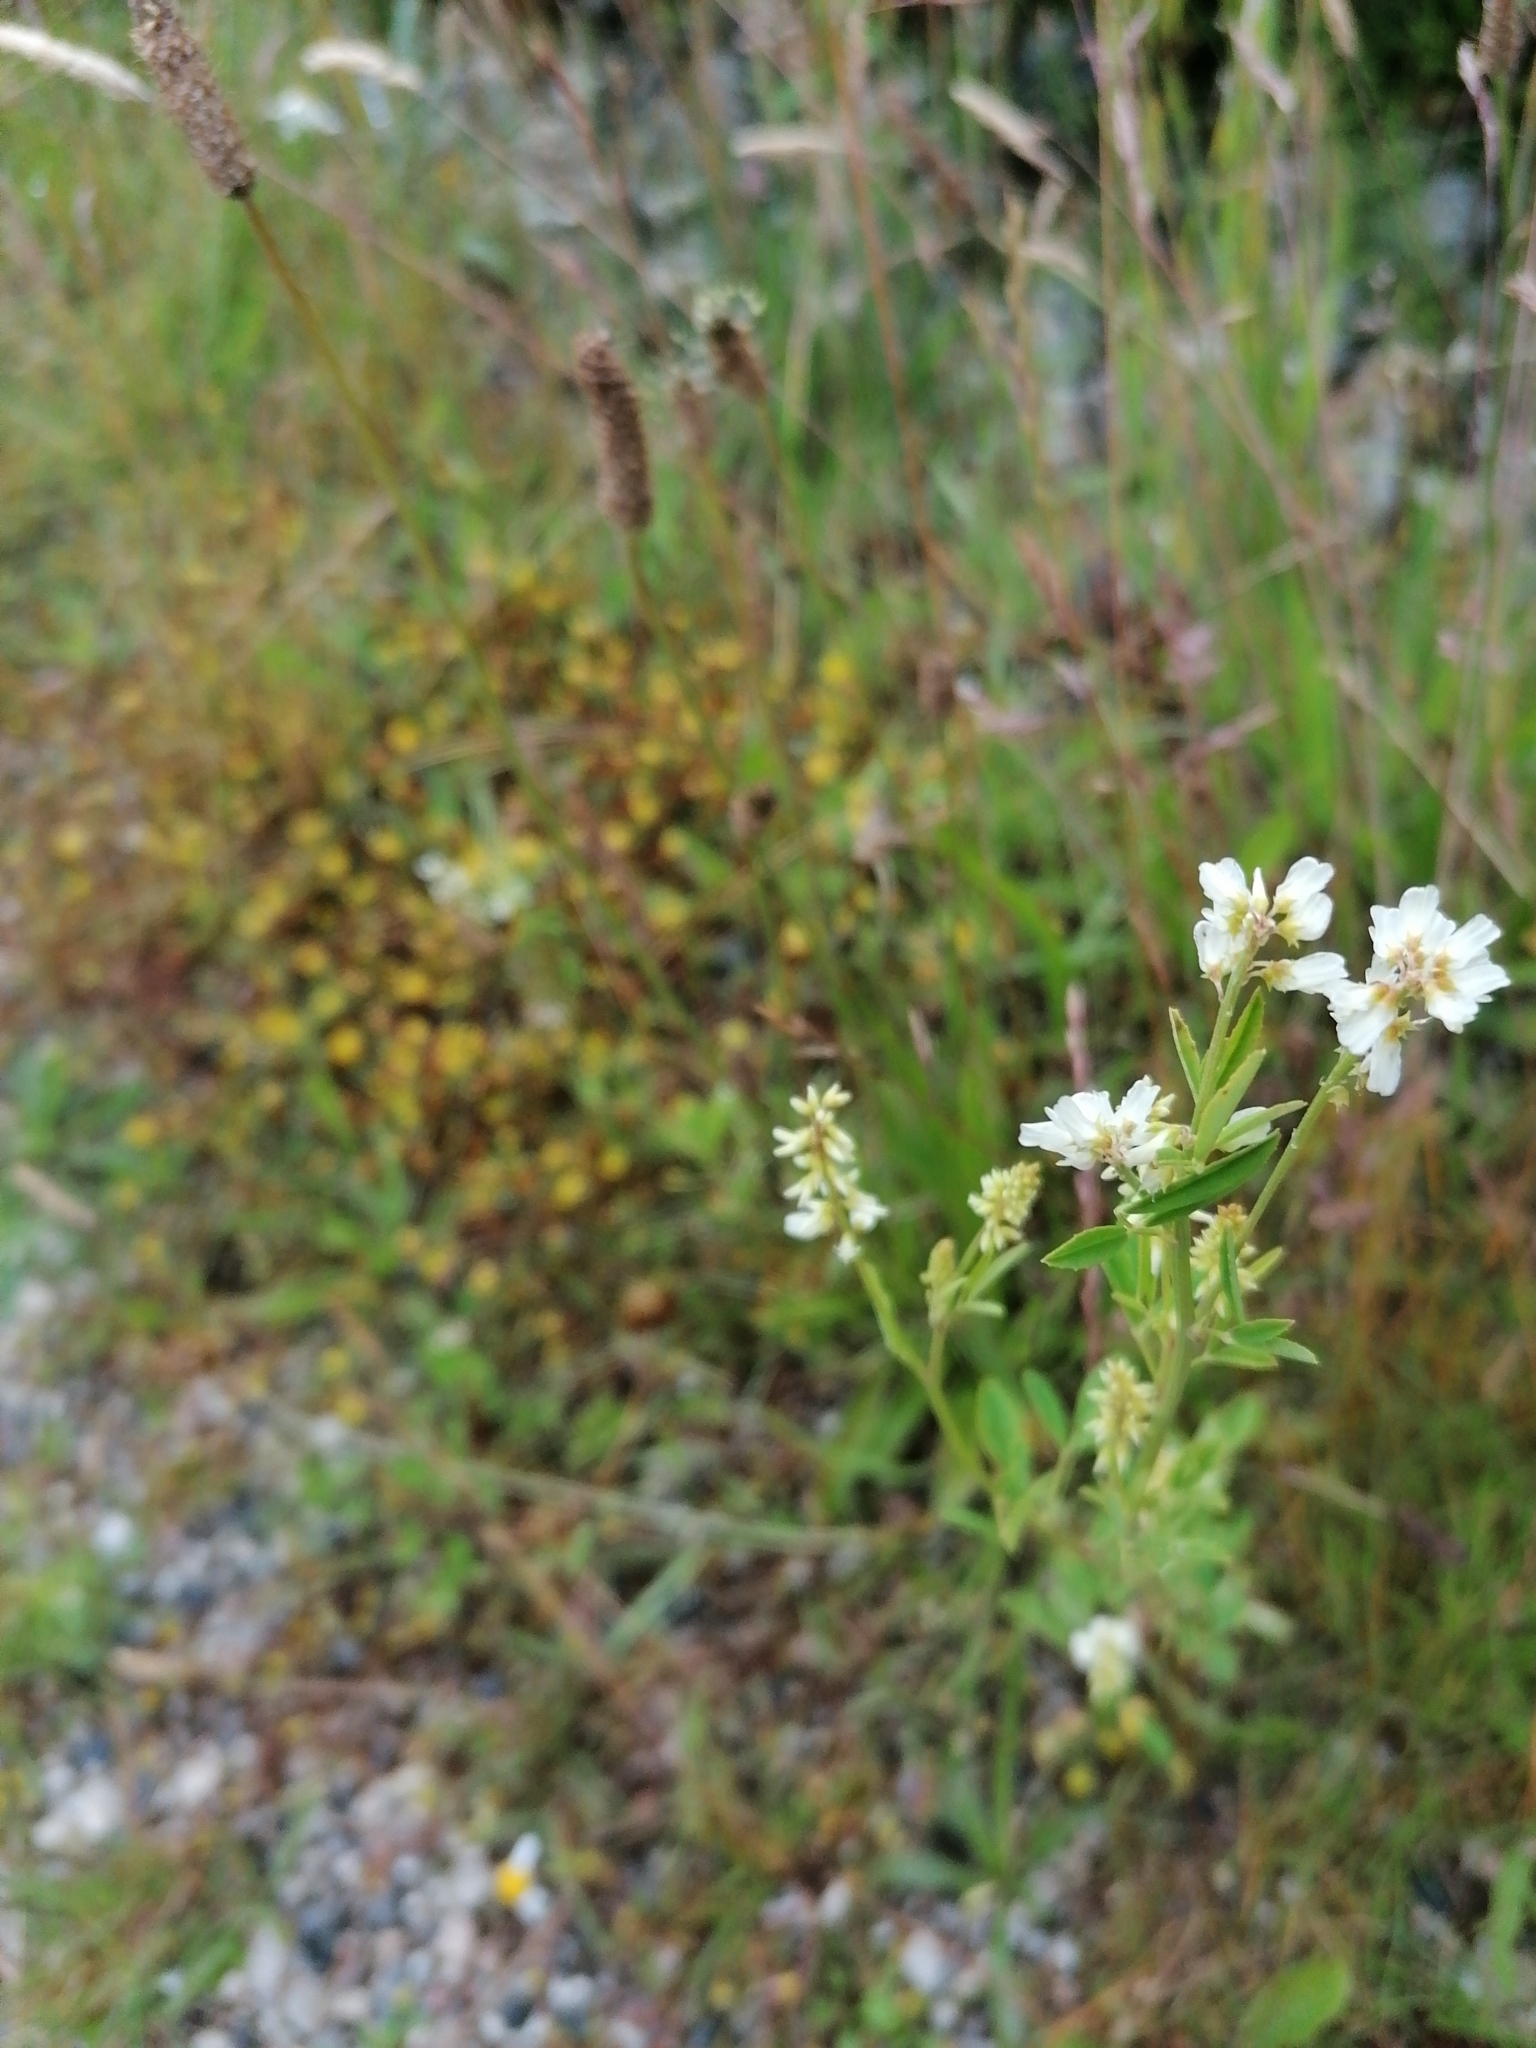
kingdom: Plantae
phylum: Tracheophyta
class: Magnoliopsida
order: Fabales
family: Fabaceae
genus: Melilotus
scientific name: Melilotus albus
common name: White melilot
